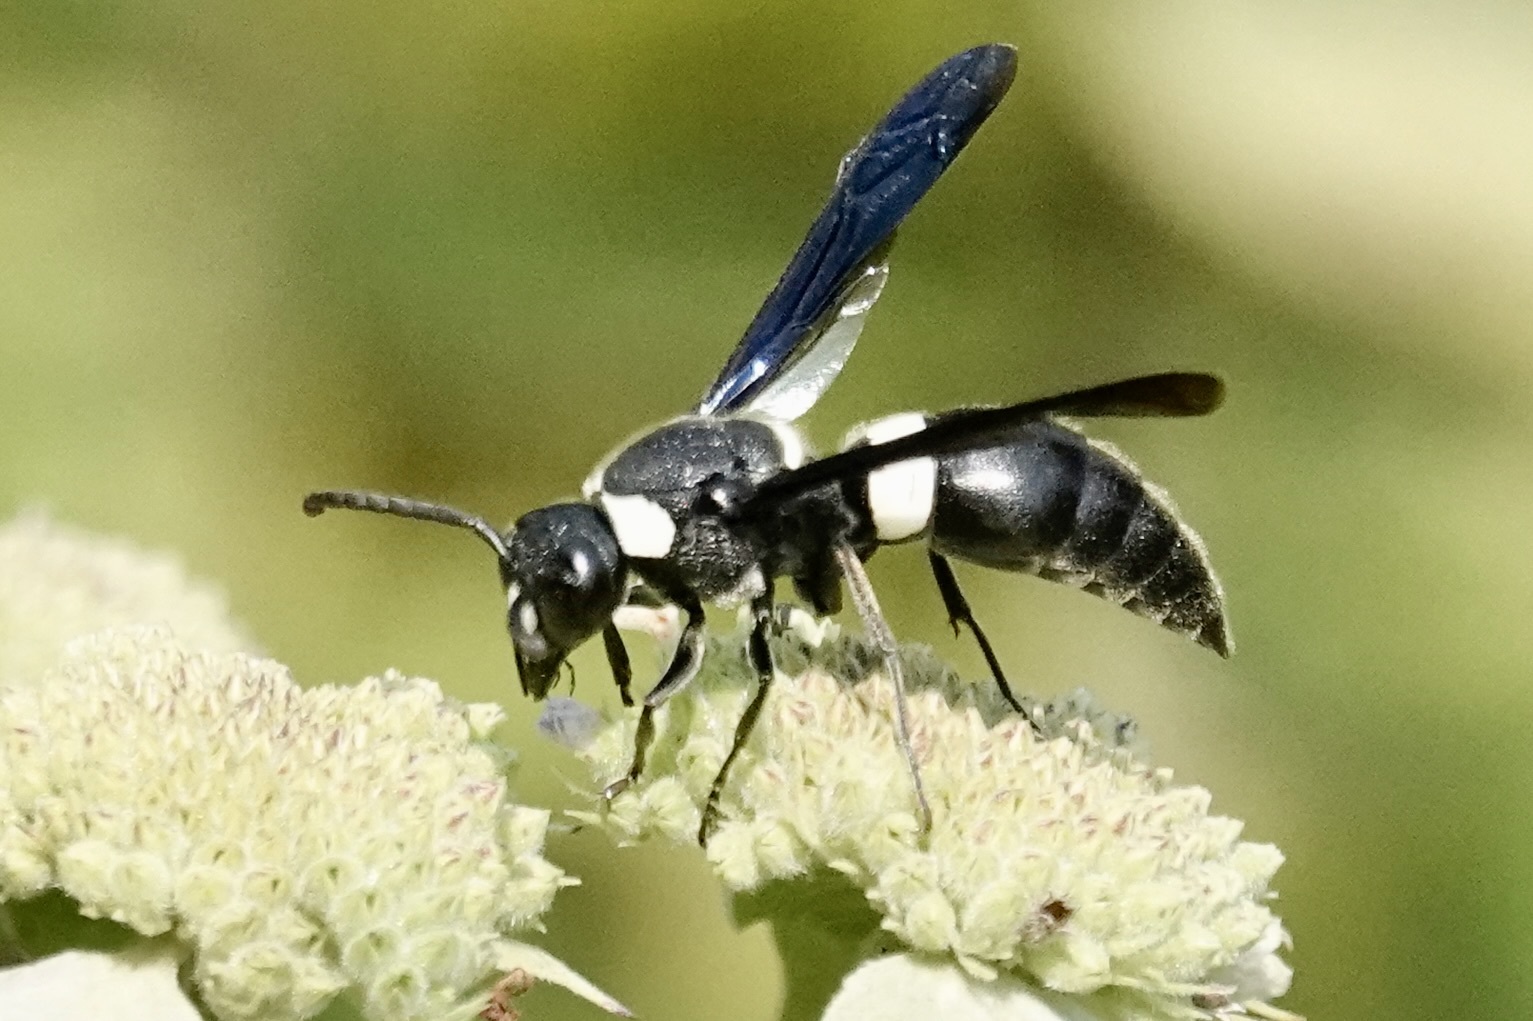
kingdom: Animalia
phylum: Arthropoda
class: Insecta
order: Hymenoptera
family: Eumenidae
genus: Monobia
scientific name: Monobia quadridens
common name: Four-toothed mason wasp
